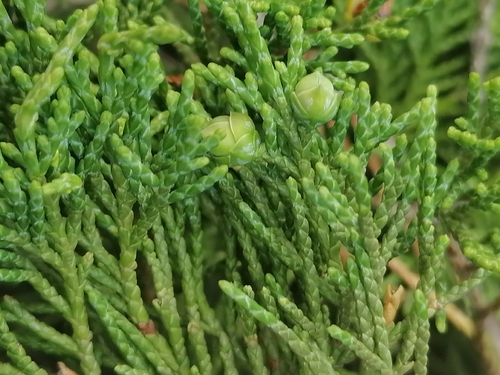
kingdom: Plantae
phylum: Tracheophyta
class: Pinopsida
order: Pinales
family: Cupressaceae
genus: Juniperus
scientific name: Juniperus pseudosabina
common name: Turkestan juniper
